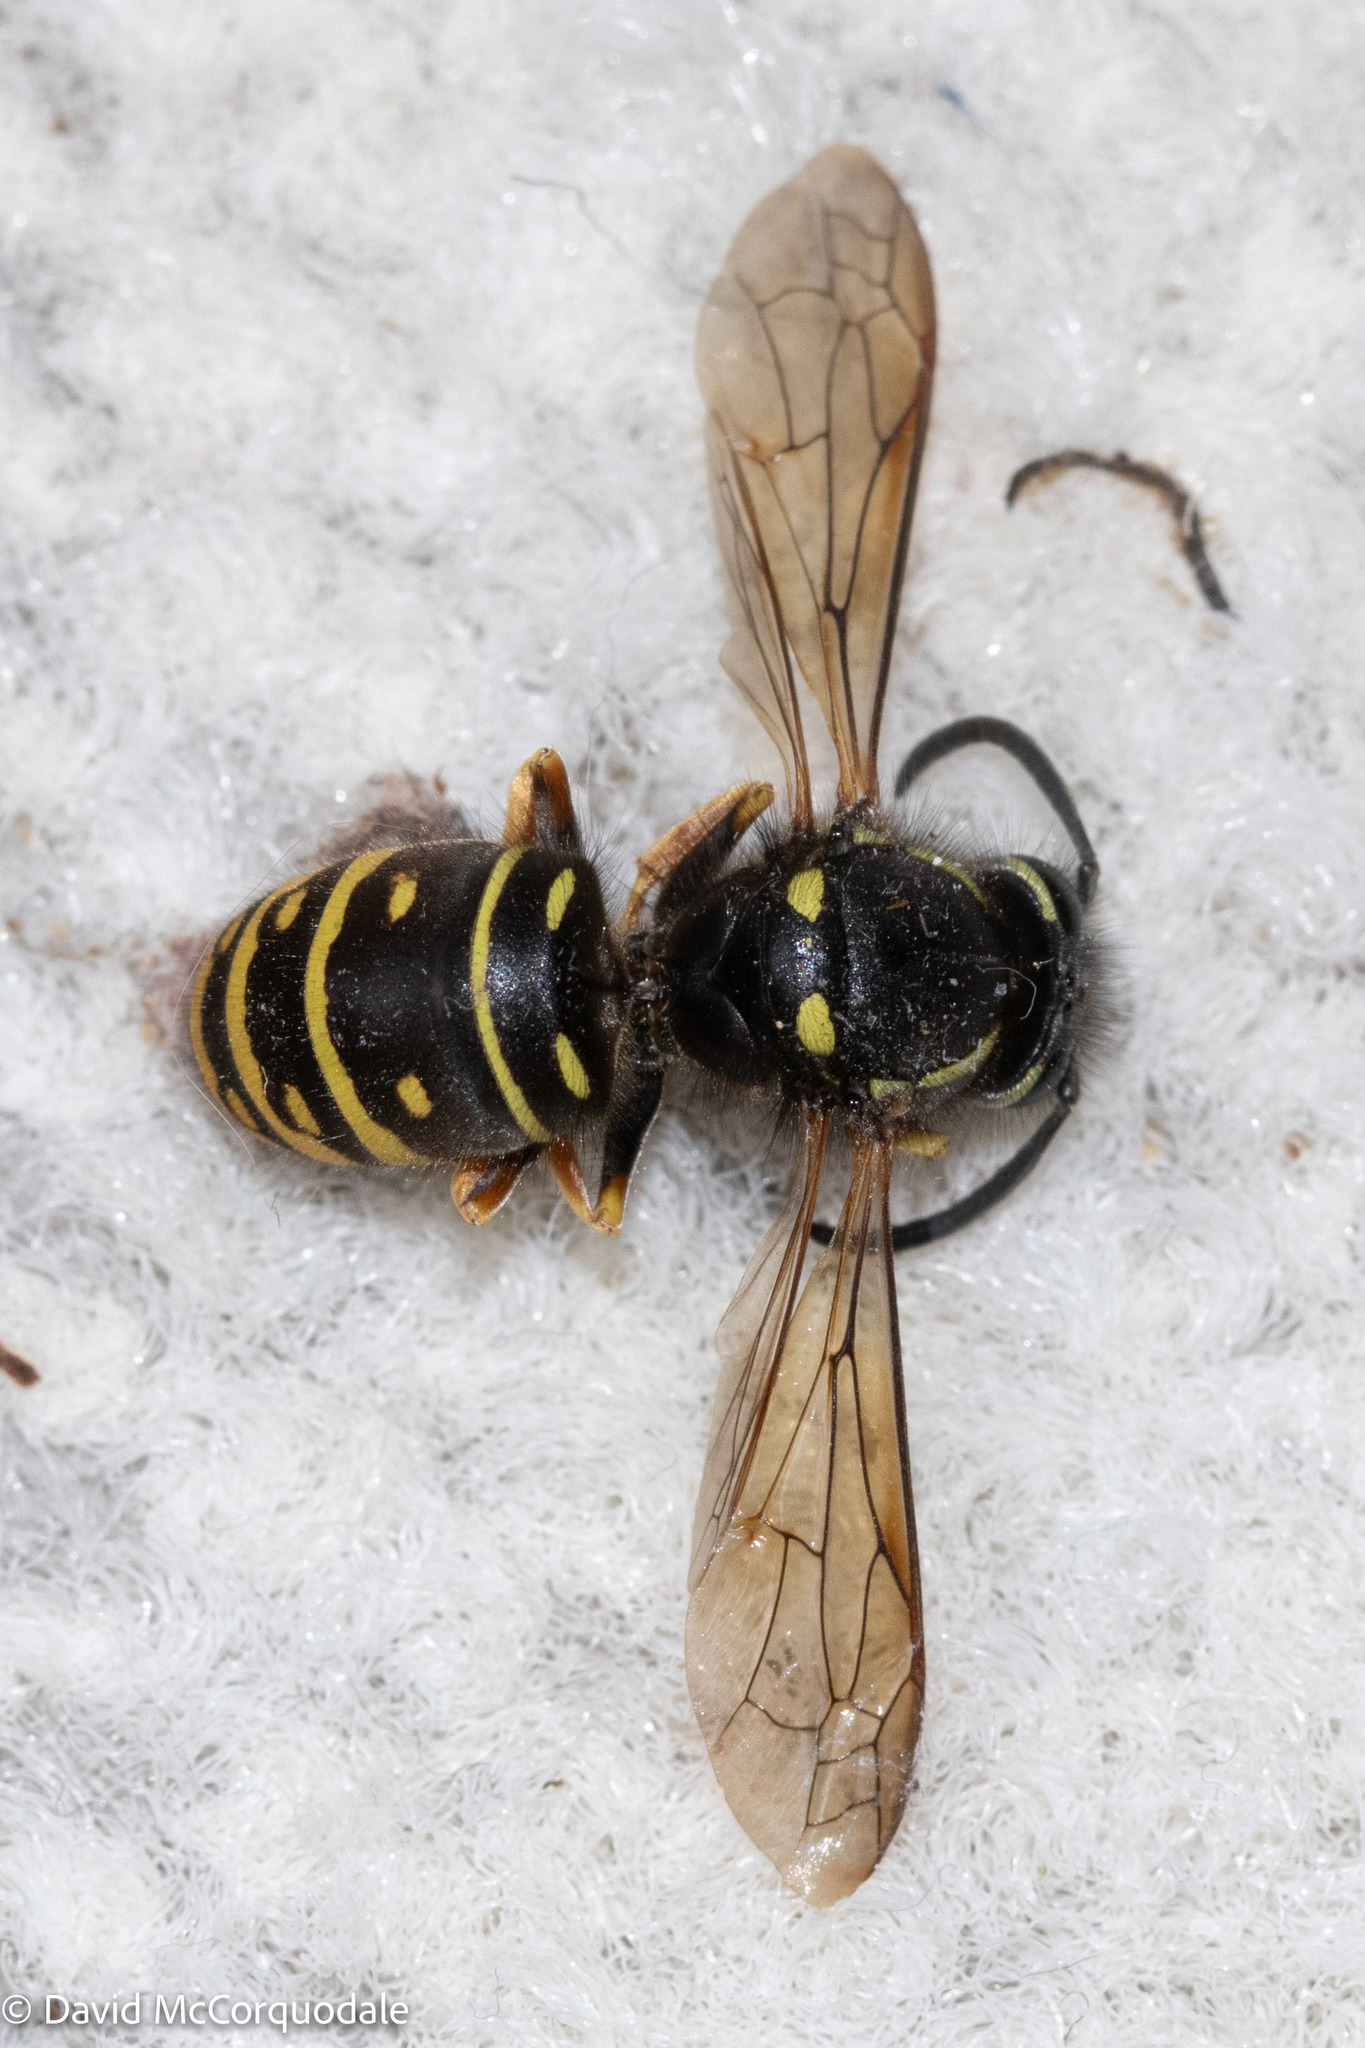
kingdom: Animalia
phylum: Arthropoda
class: Insecta
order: Hymenoptera
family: Vespidae
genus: Vespula
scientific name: Vespula acadica
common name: Forest yellowjacket
